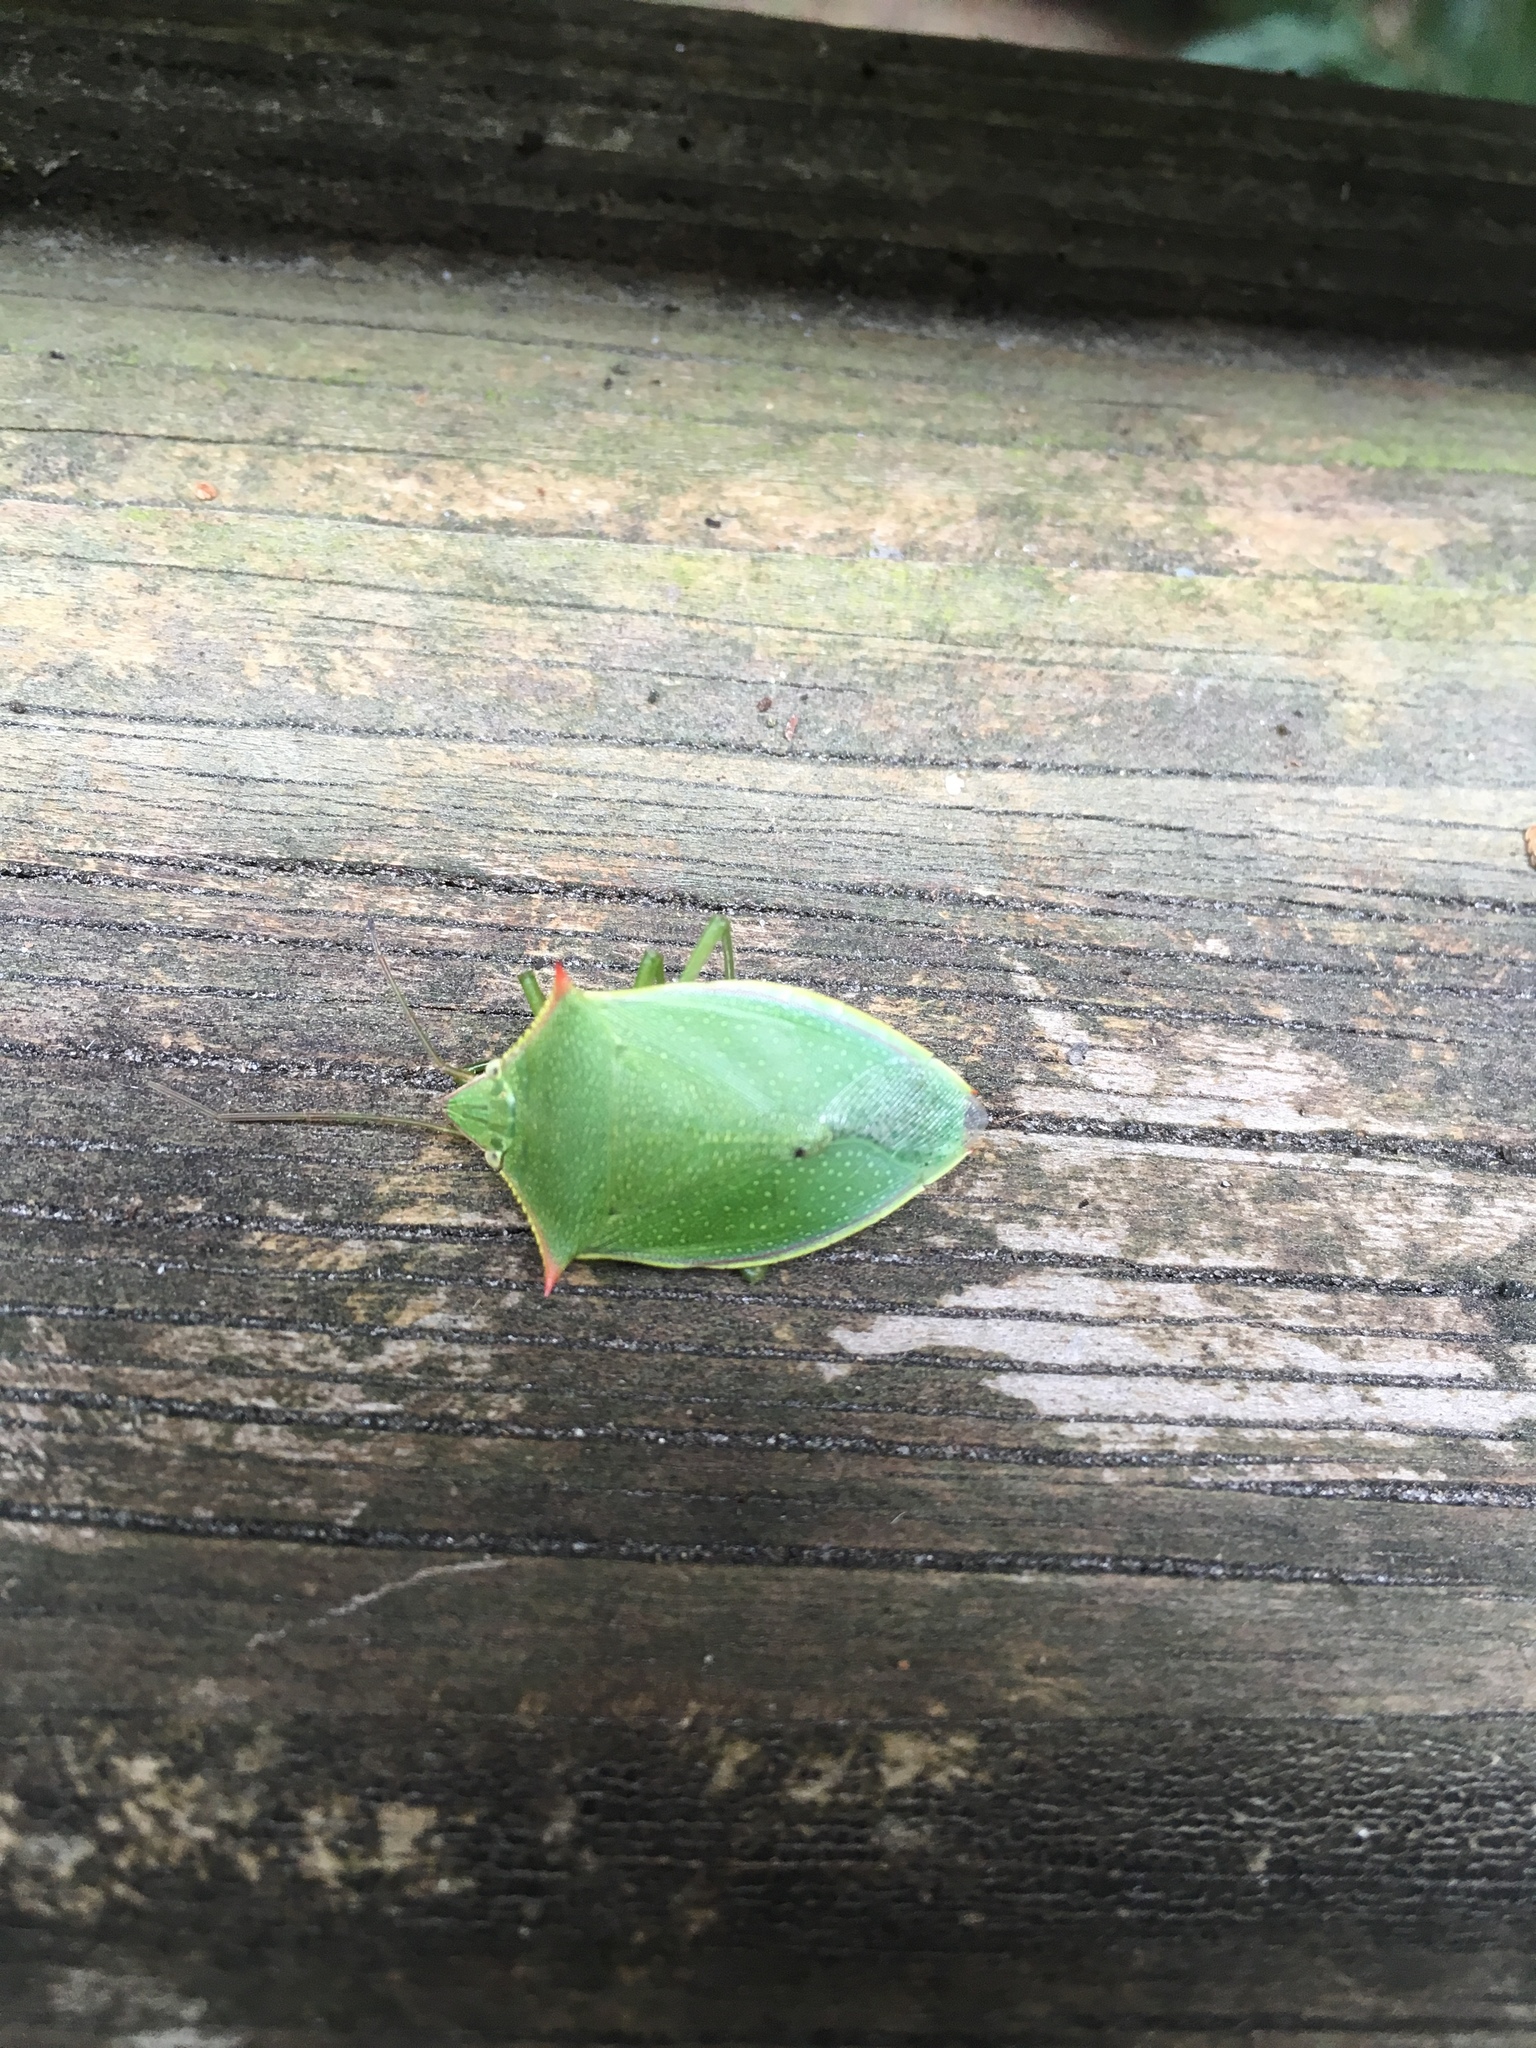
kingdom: Animalia
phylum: Arthropoda
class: Insecta
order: Hemiptera
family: Pentatomidae
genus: Loxa
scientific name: Loxa flavicollis
